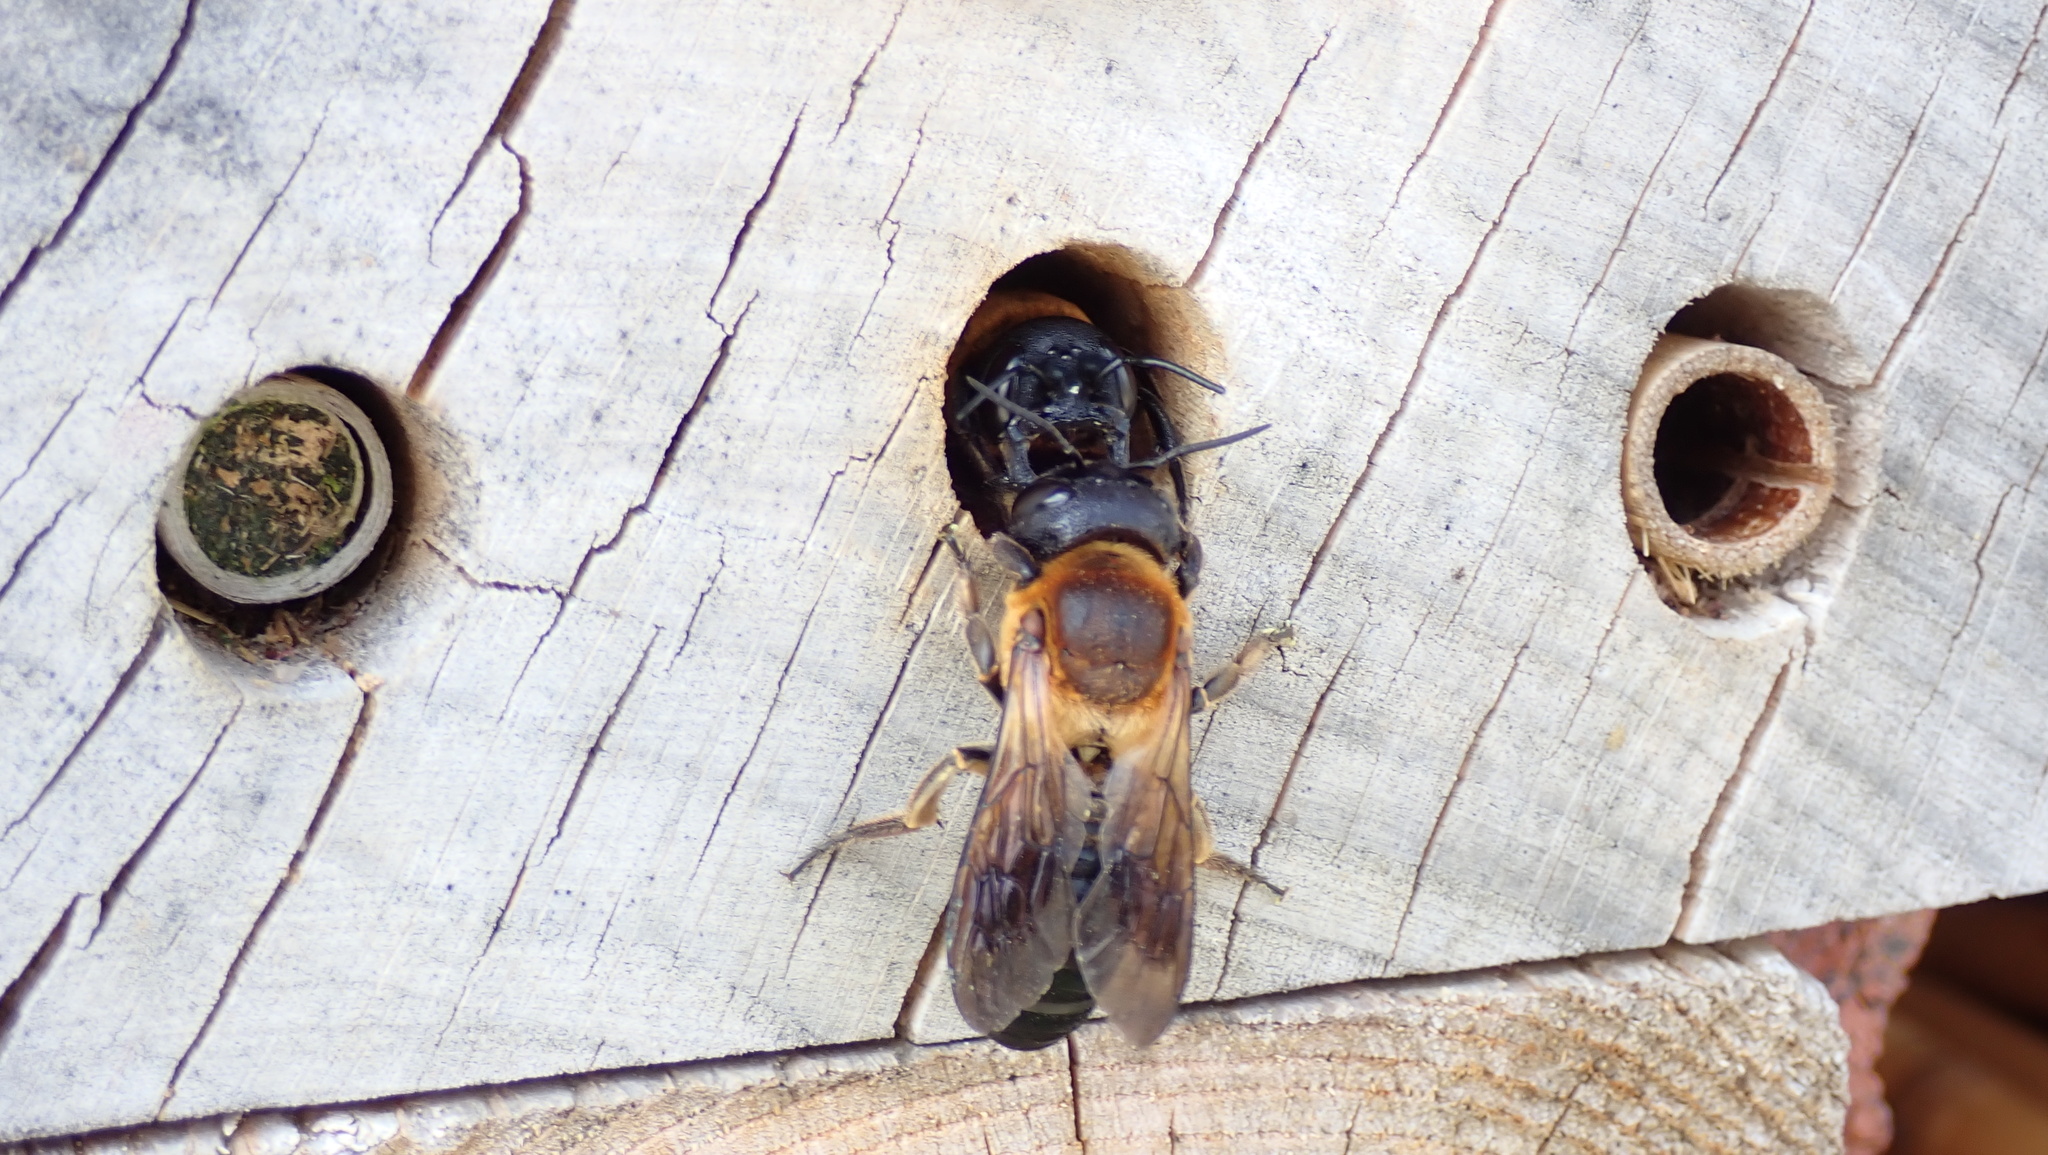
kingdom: Animalia
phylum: Arthropoda
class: Insecta
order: Hymenoptera
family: Megachilidae
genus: Megachile
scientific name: Megachile sculpturalis
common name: Sculptured resin bee
